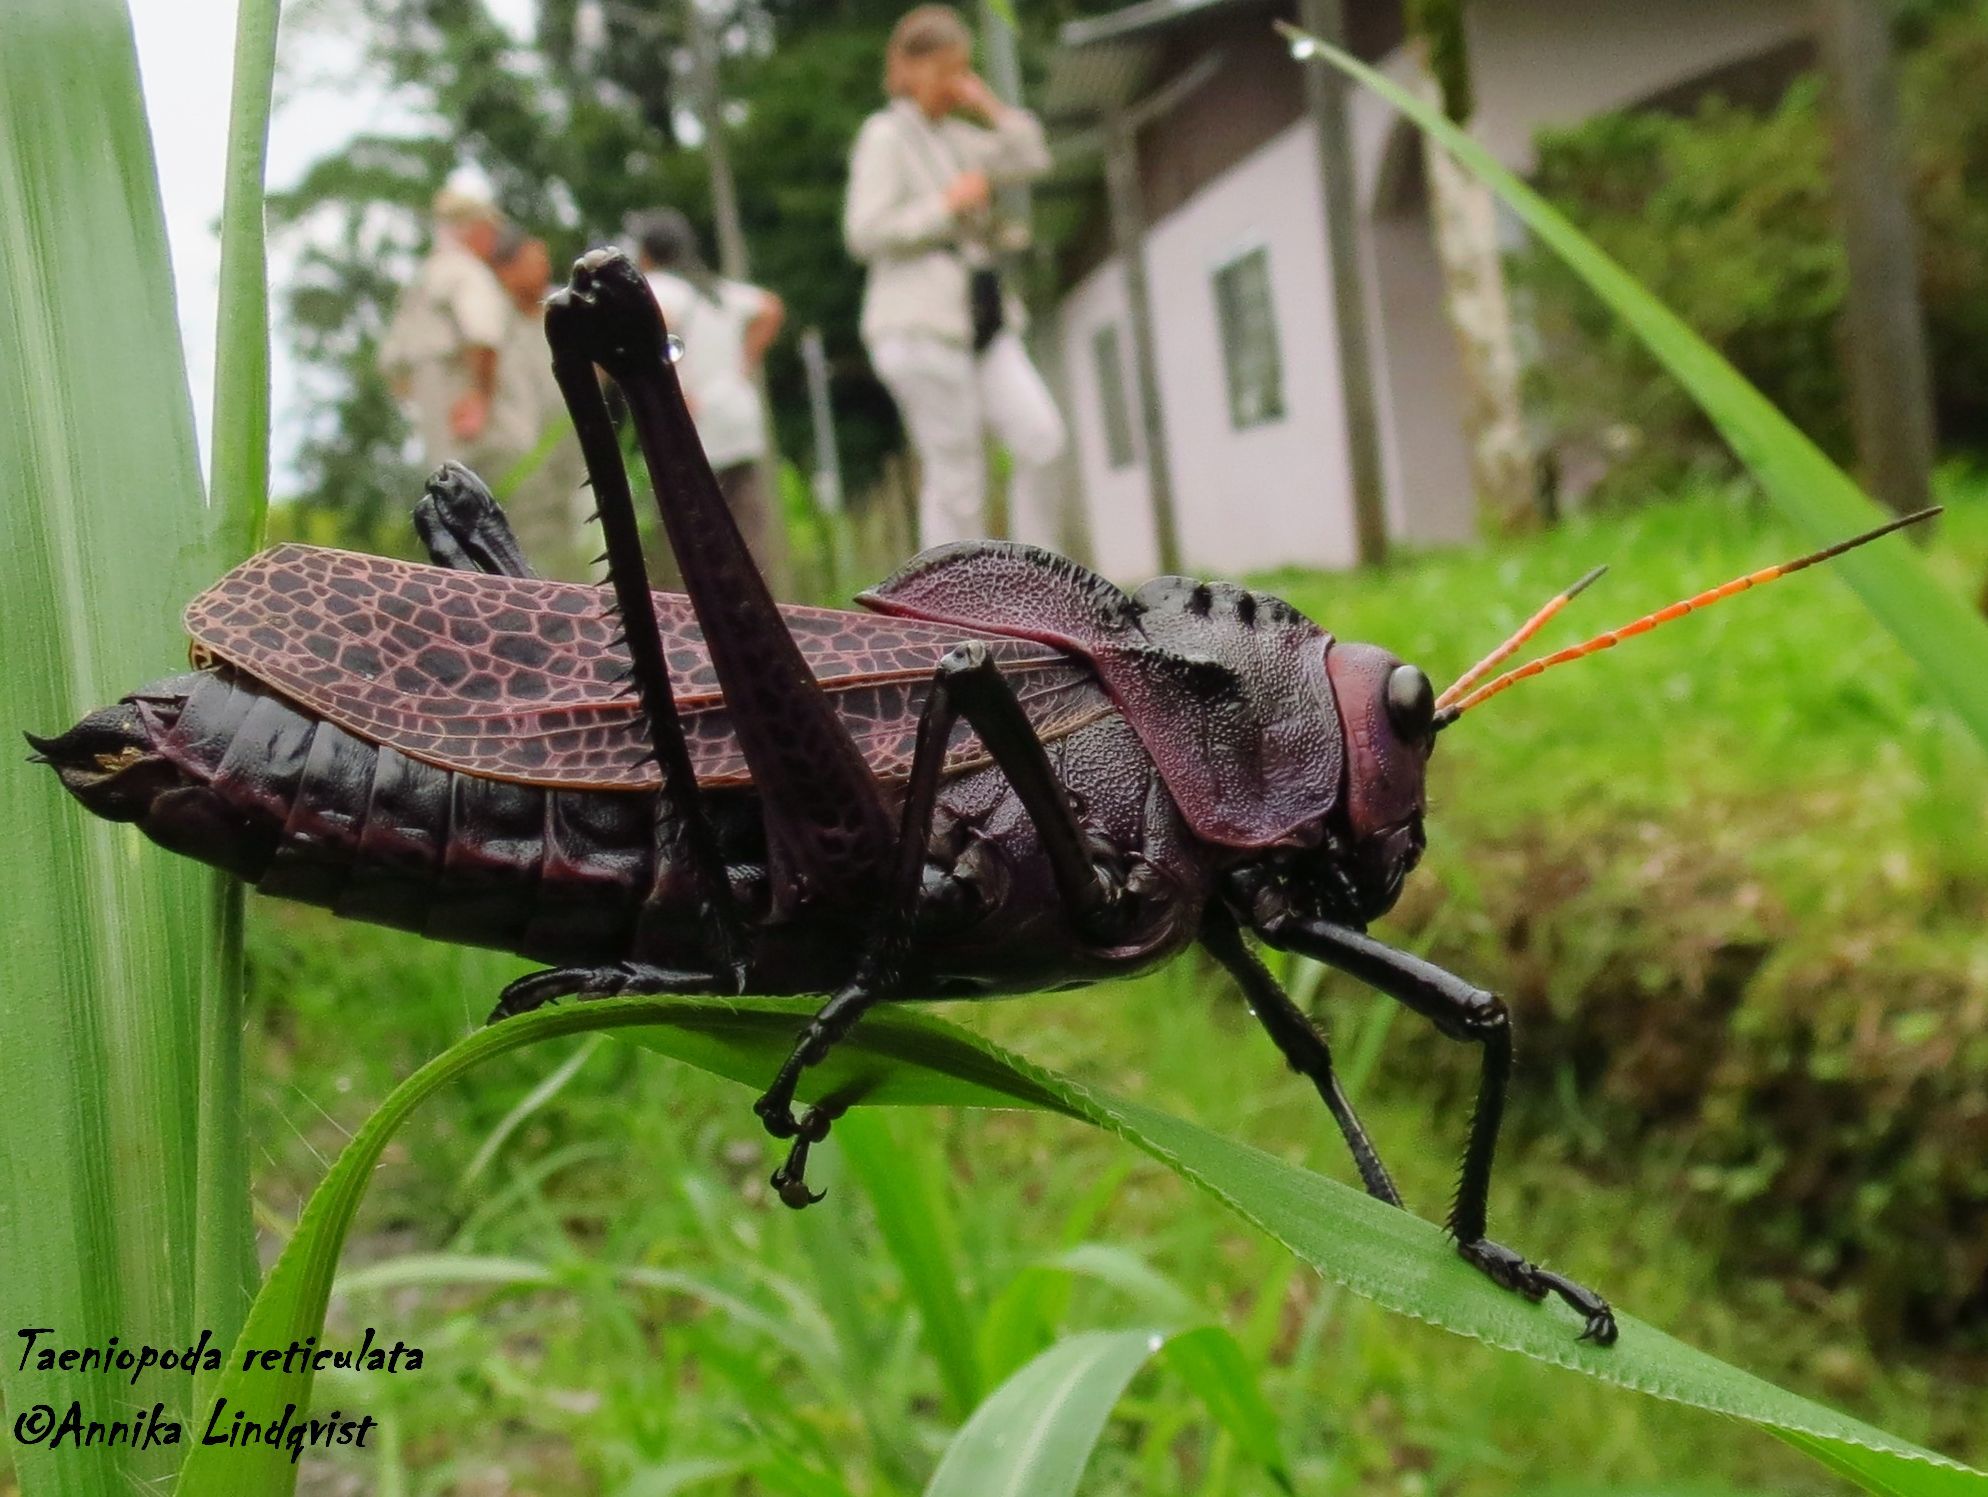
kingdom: Animalia
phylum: Arthropoda
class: Insecta
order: Orthoptera
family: Romaleidae
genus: Romalea
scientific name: Romalea
